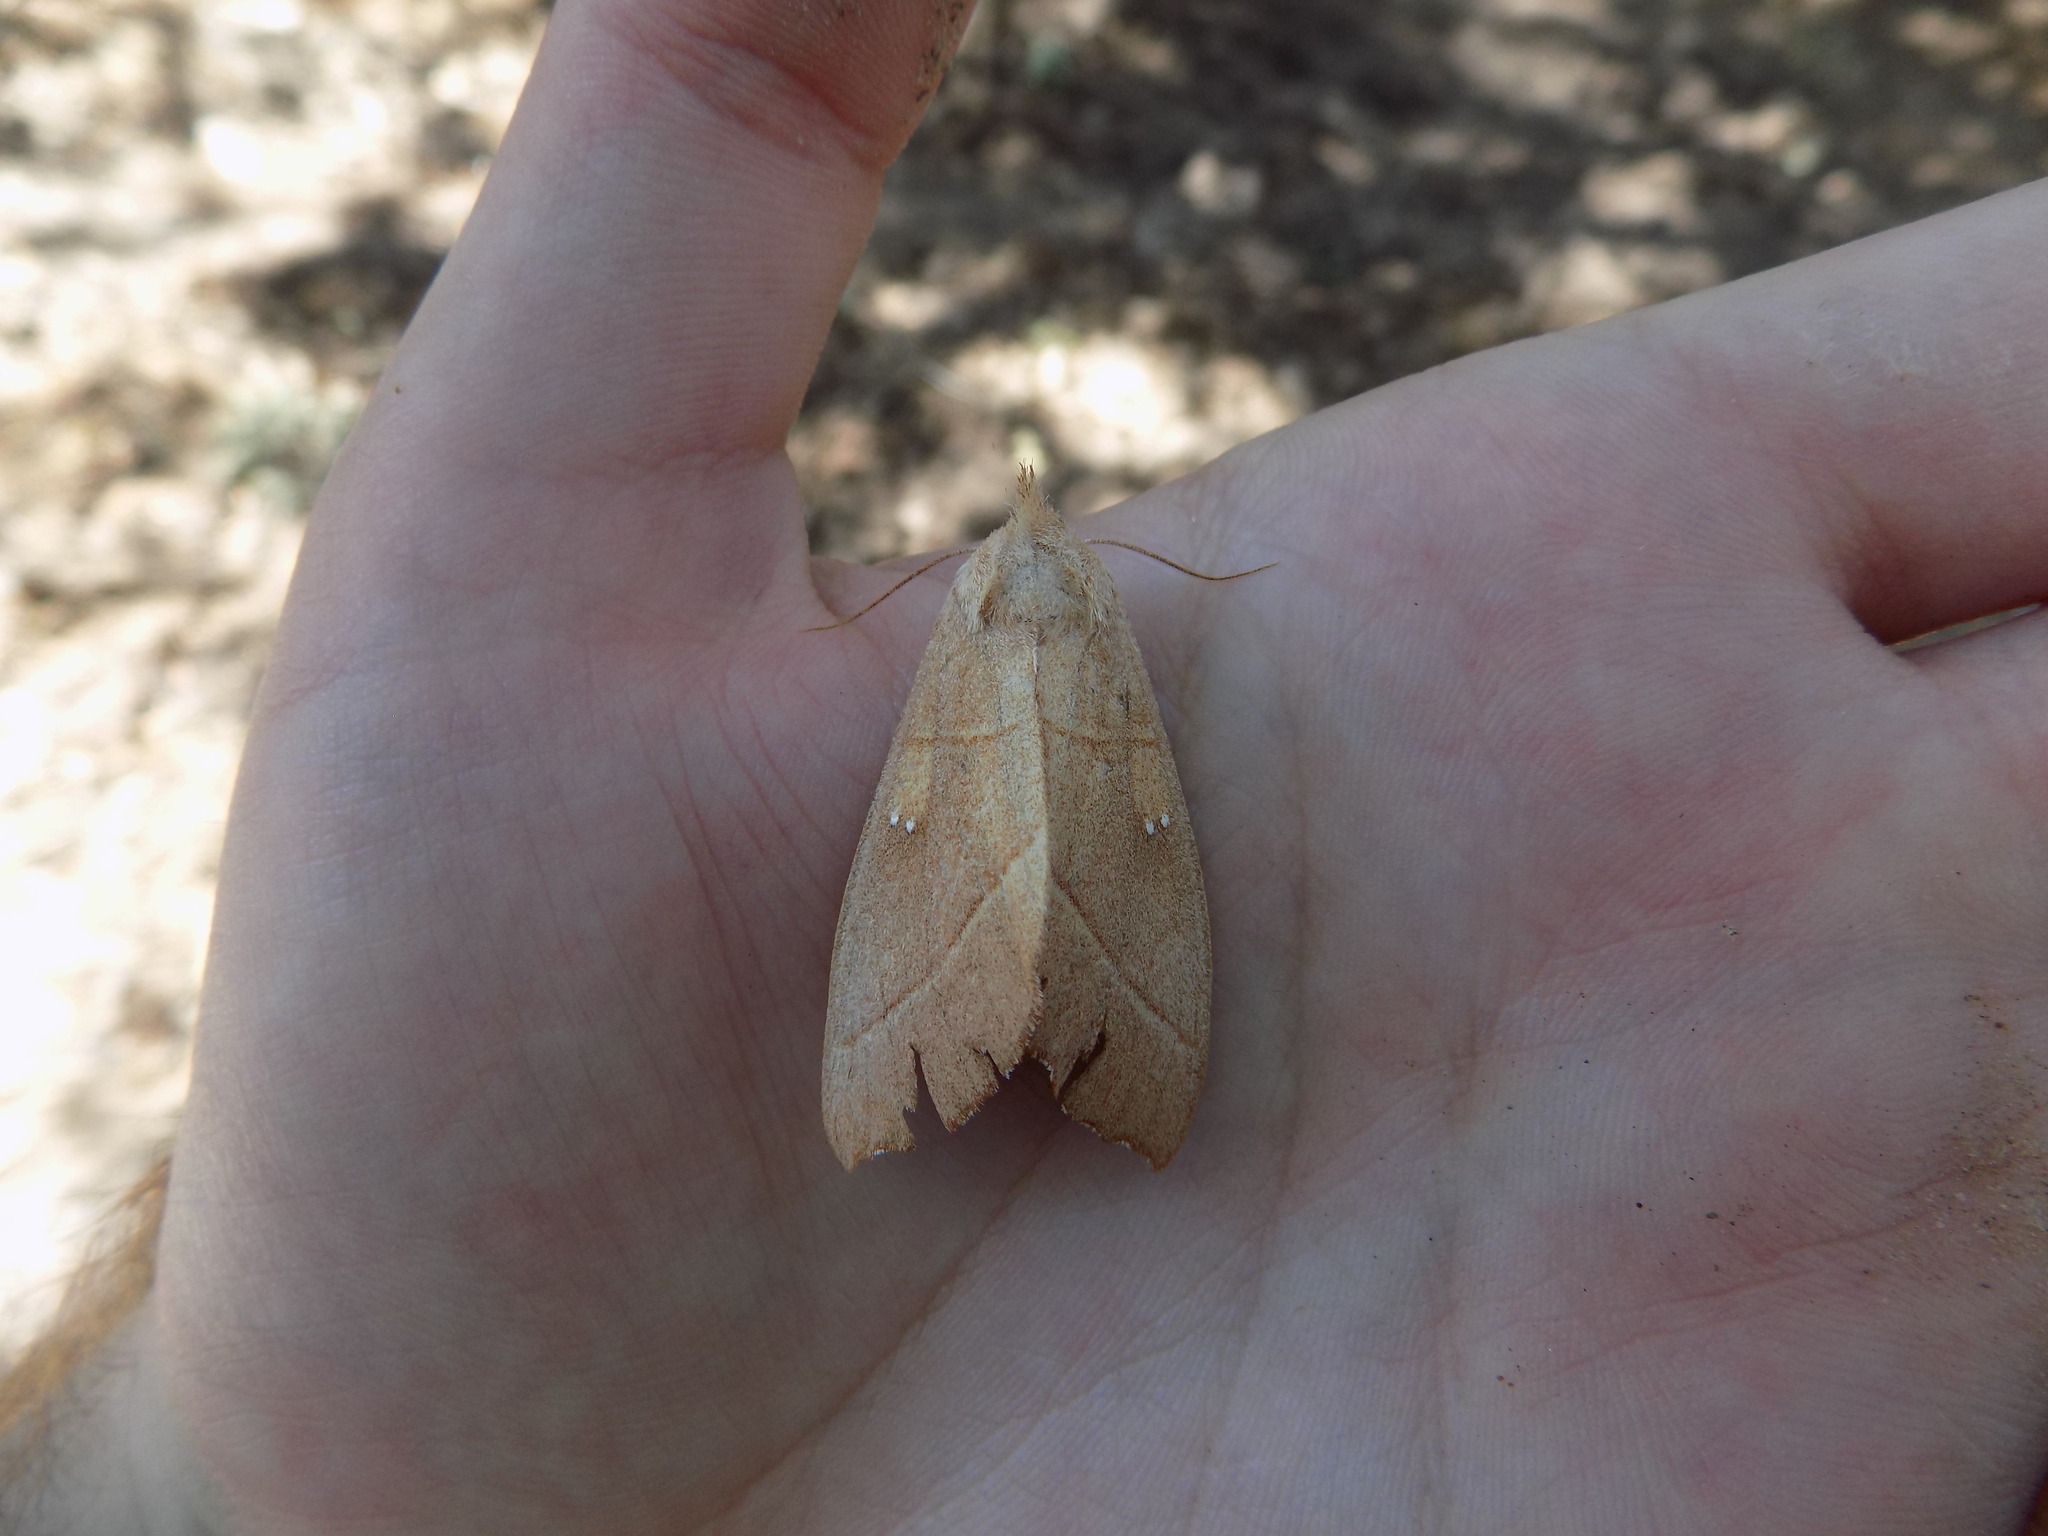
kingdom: Animalia
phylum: Arthropoda
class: Insecta
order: Lepidoptera
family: Notodontidae
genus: Nadata
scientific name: Nadata gibbosa
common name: White-dotted prominent
